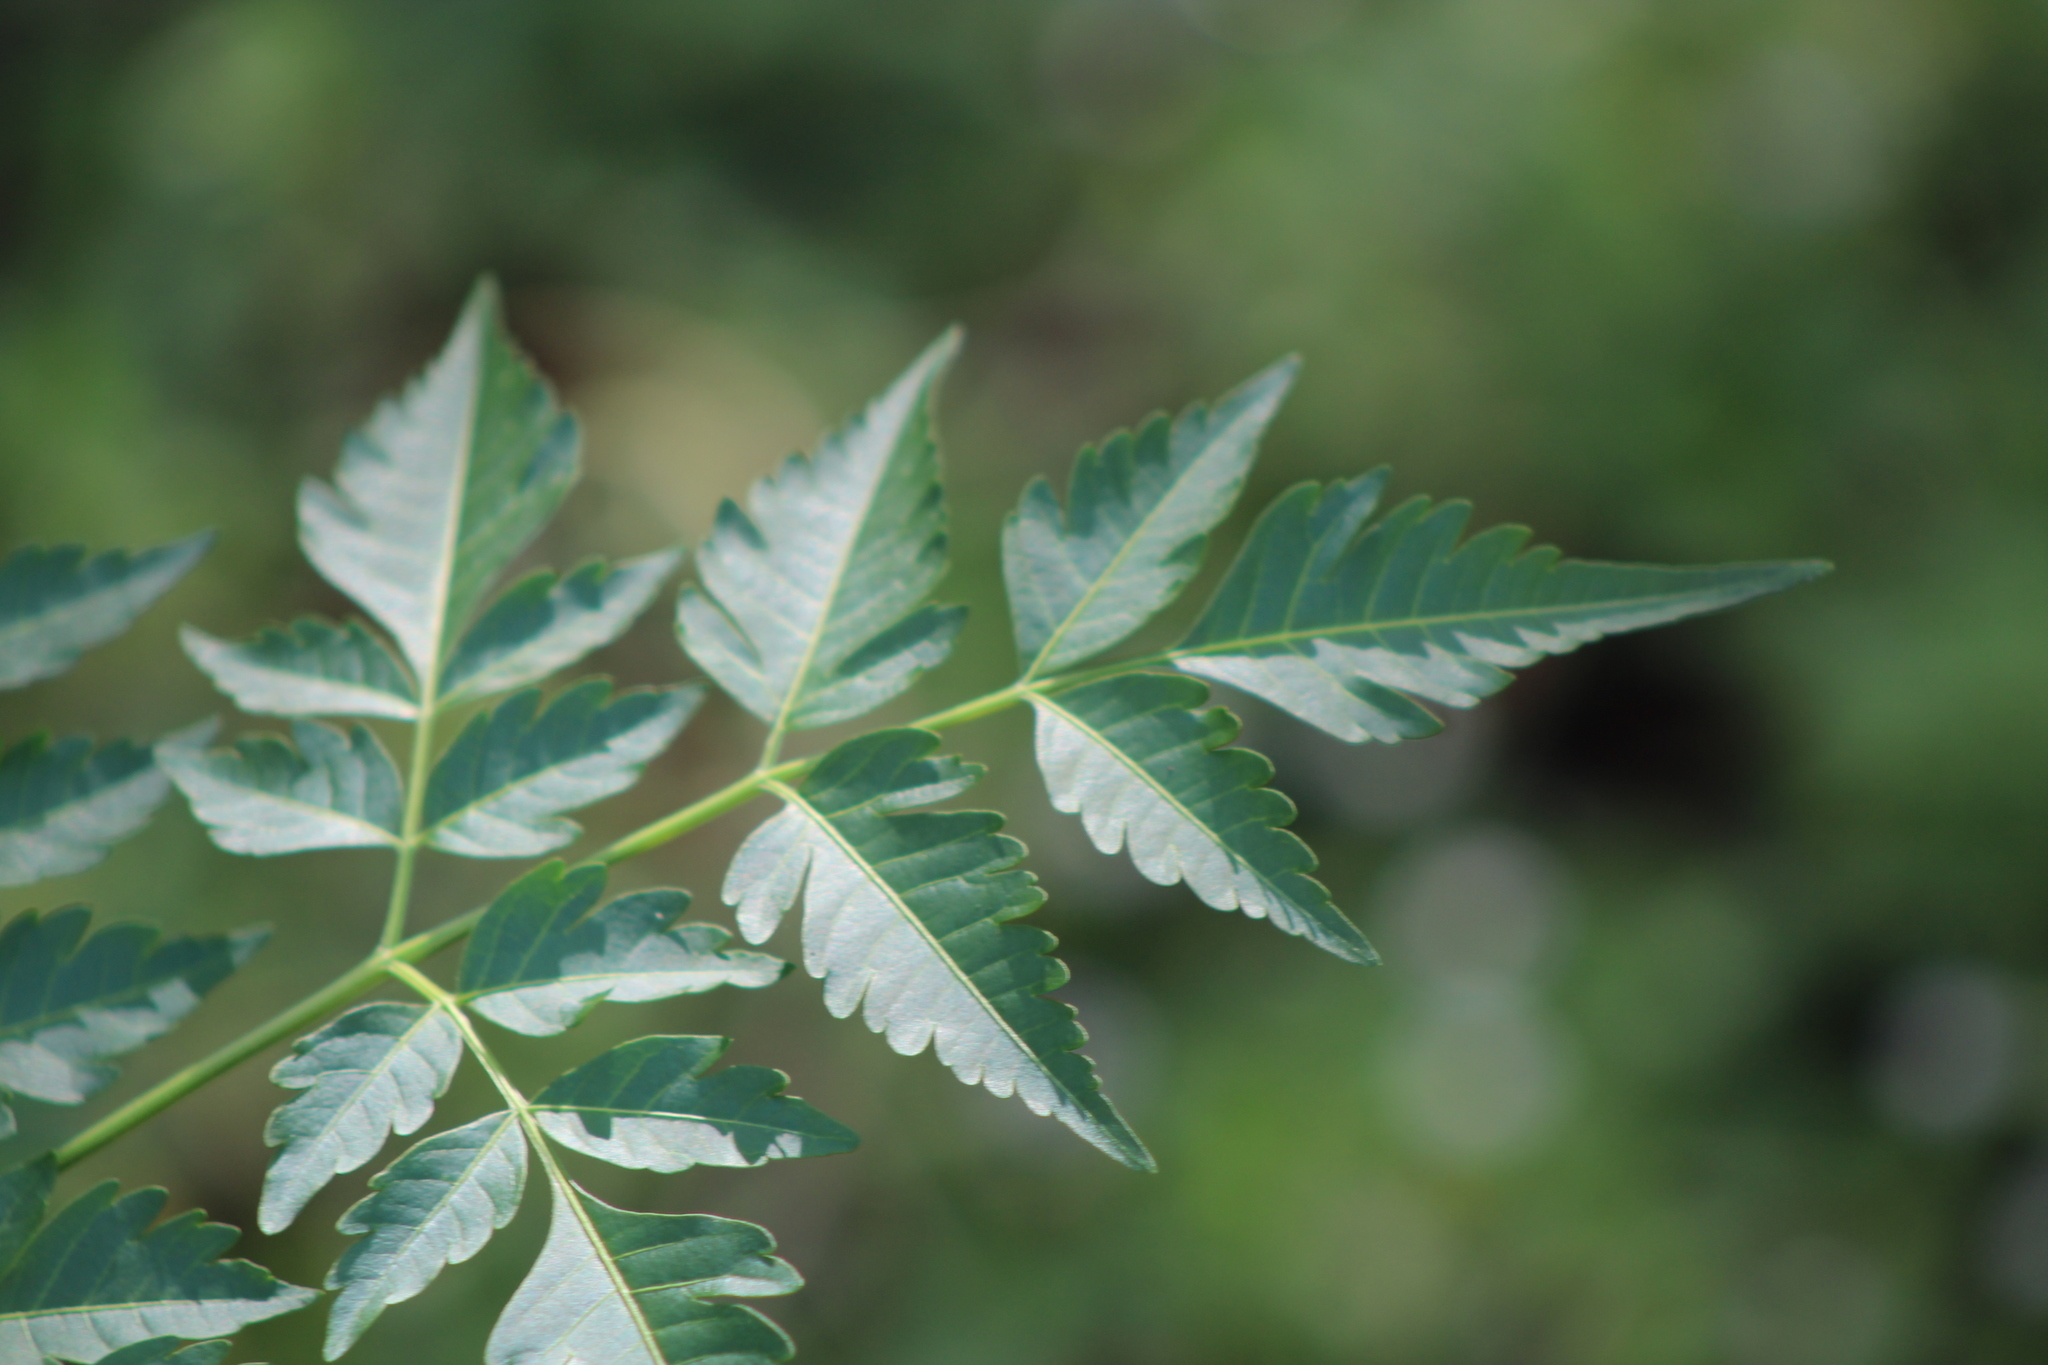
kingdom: Plantae
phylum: Tracheophyta
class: Magnoliopsida
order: Sapindales
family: Meliaceae
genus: Melia
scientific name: Melia azedarach
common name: Chinaberrytree
